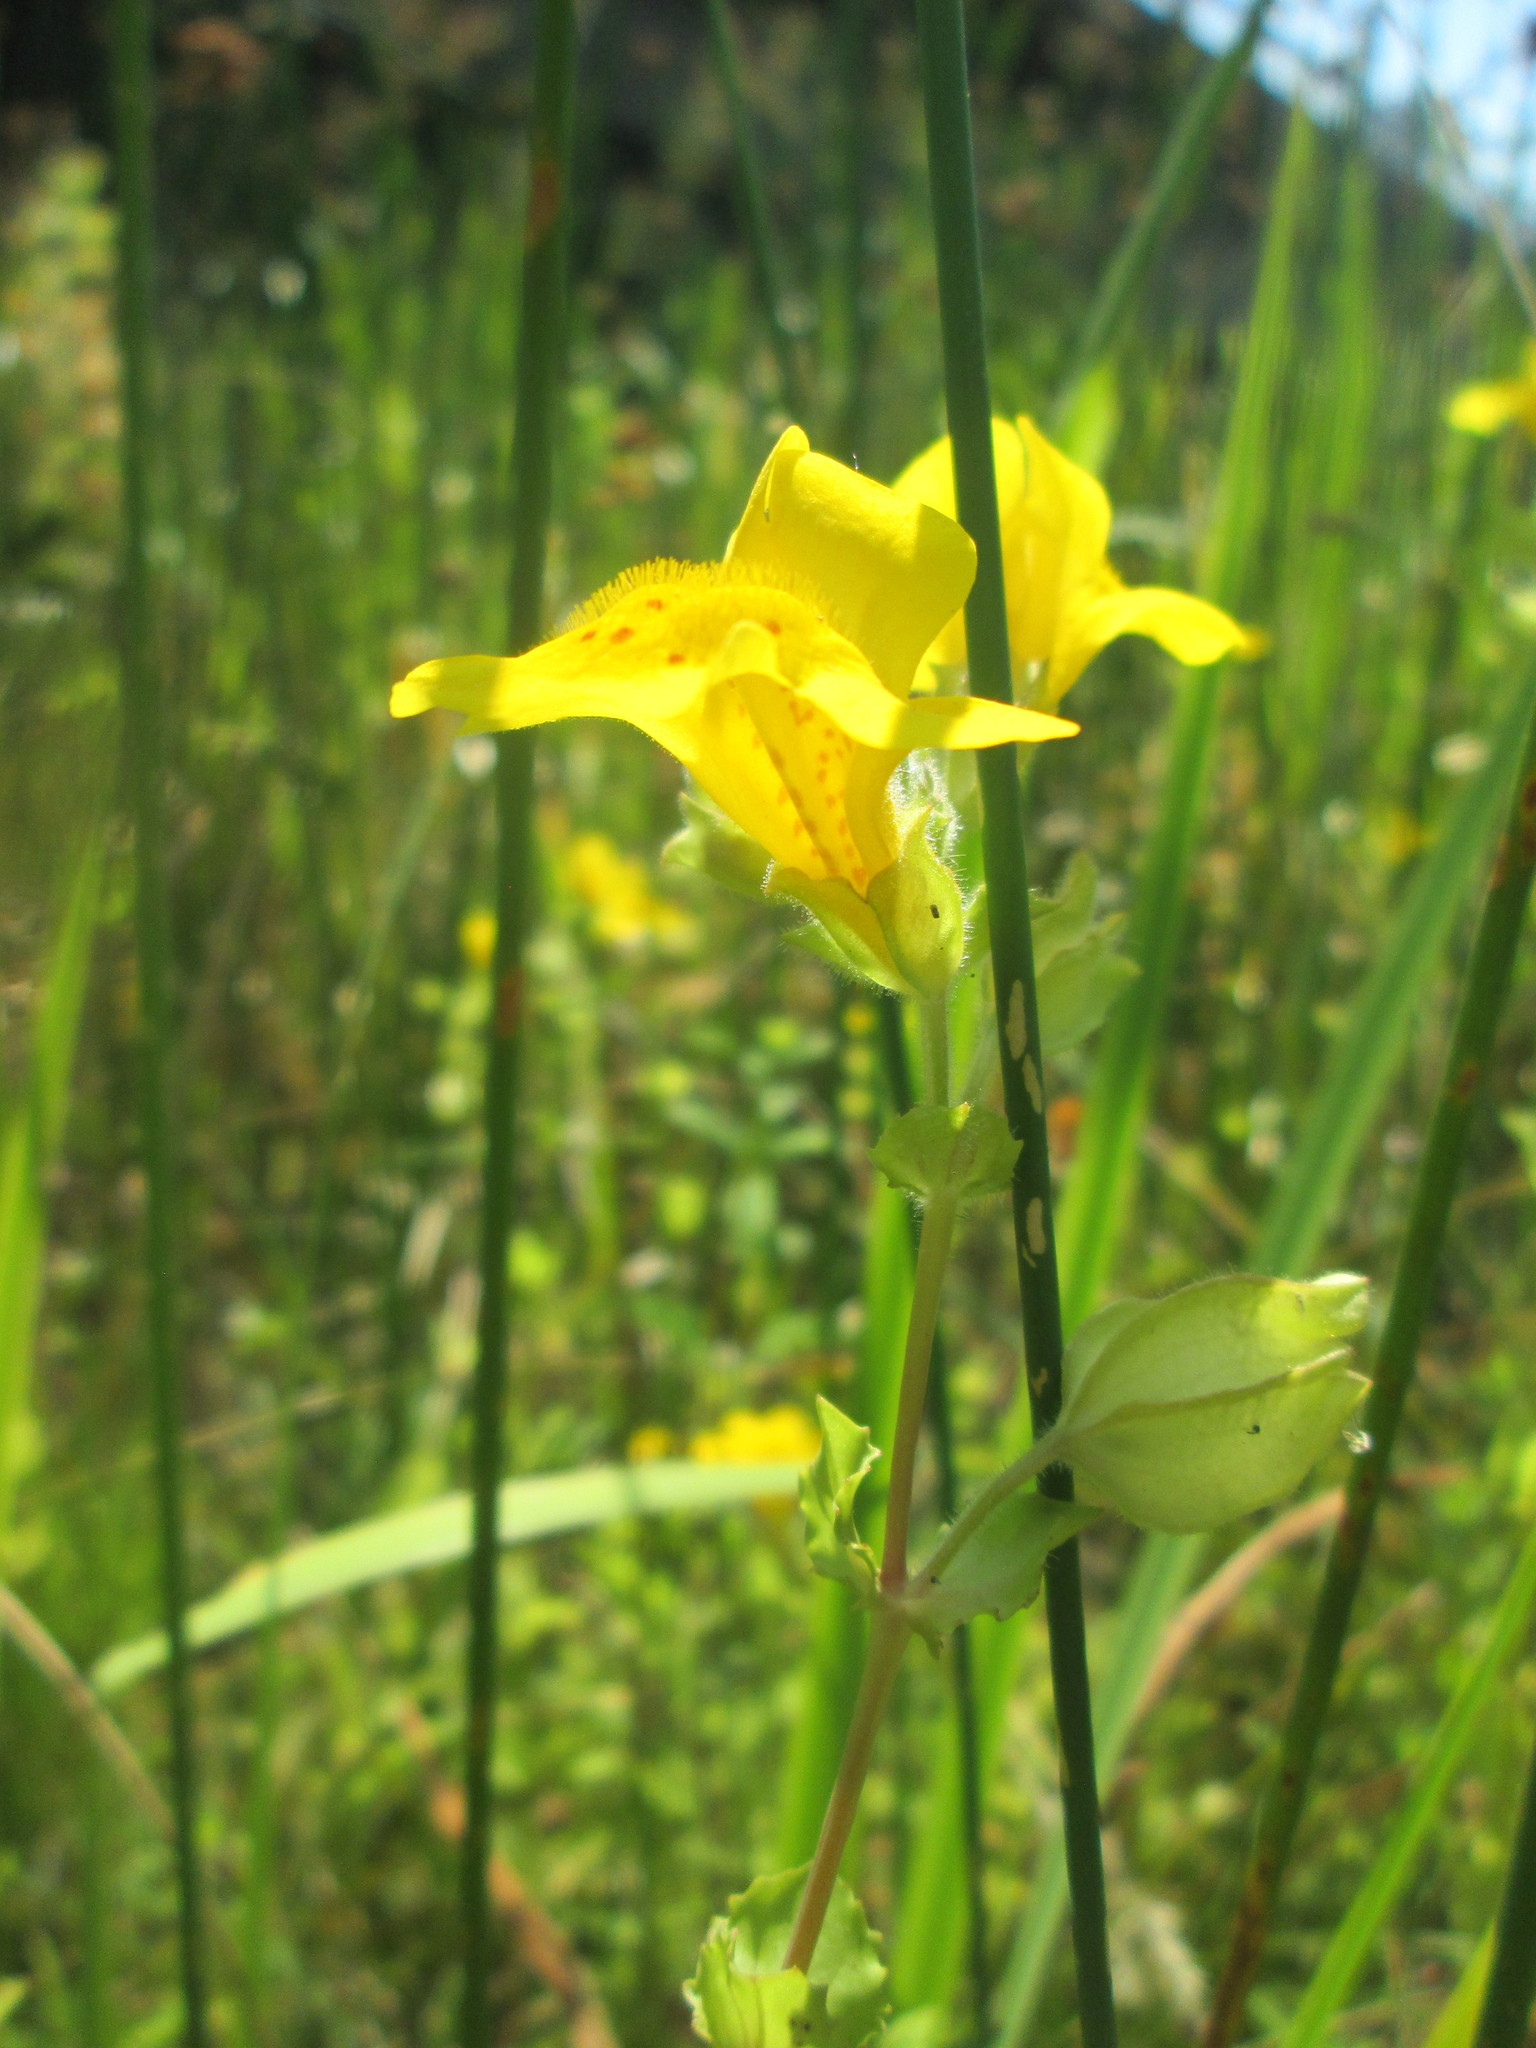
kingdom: Plantae
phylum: Tracheophyta
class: Magnoliopsida
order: Lamiales
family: Phrymaceae
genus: Erythranthe
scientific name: Erythranthe guttata
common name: Monkeyflower
